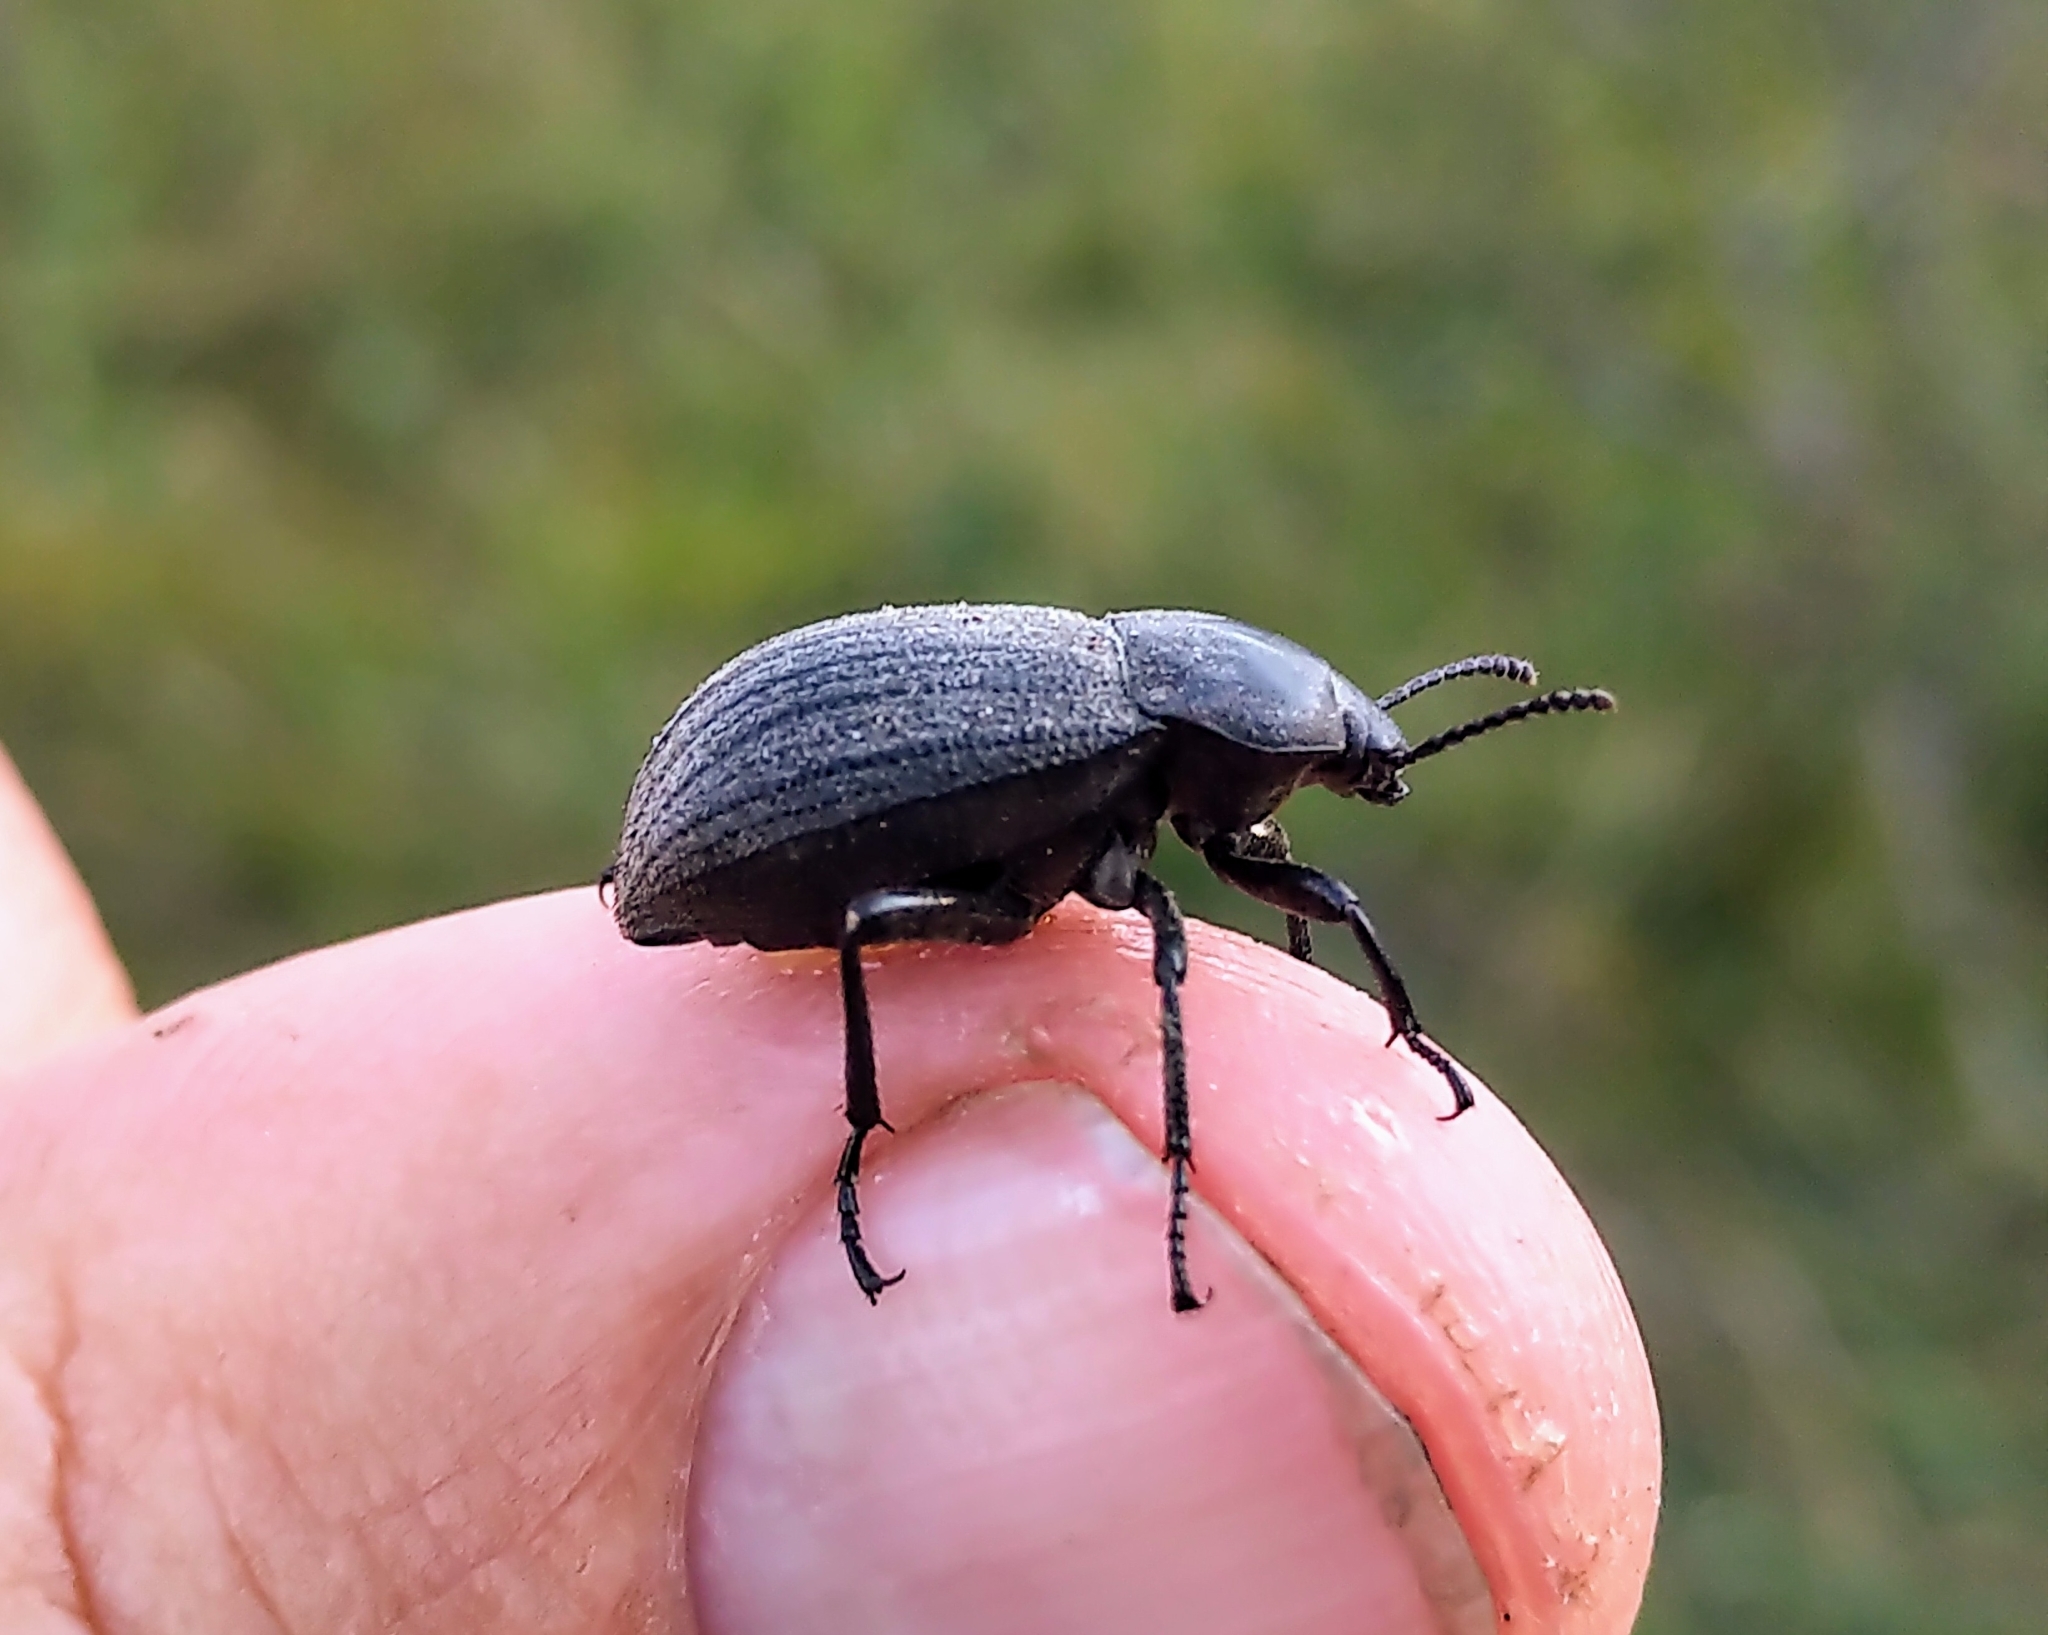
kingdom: Animalia
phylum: Arthropoda
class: Insecta
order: Coleoptera
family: Tenebrionidae
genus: Eleodes
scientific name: Eleodes tricostata
